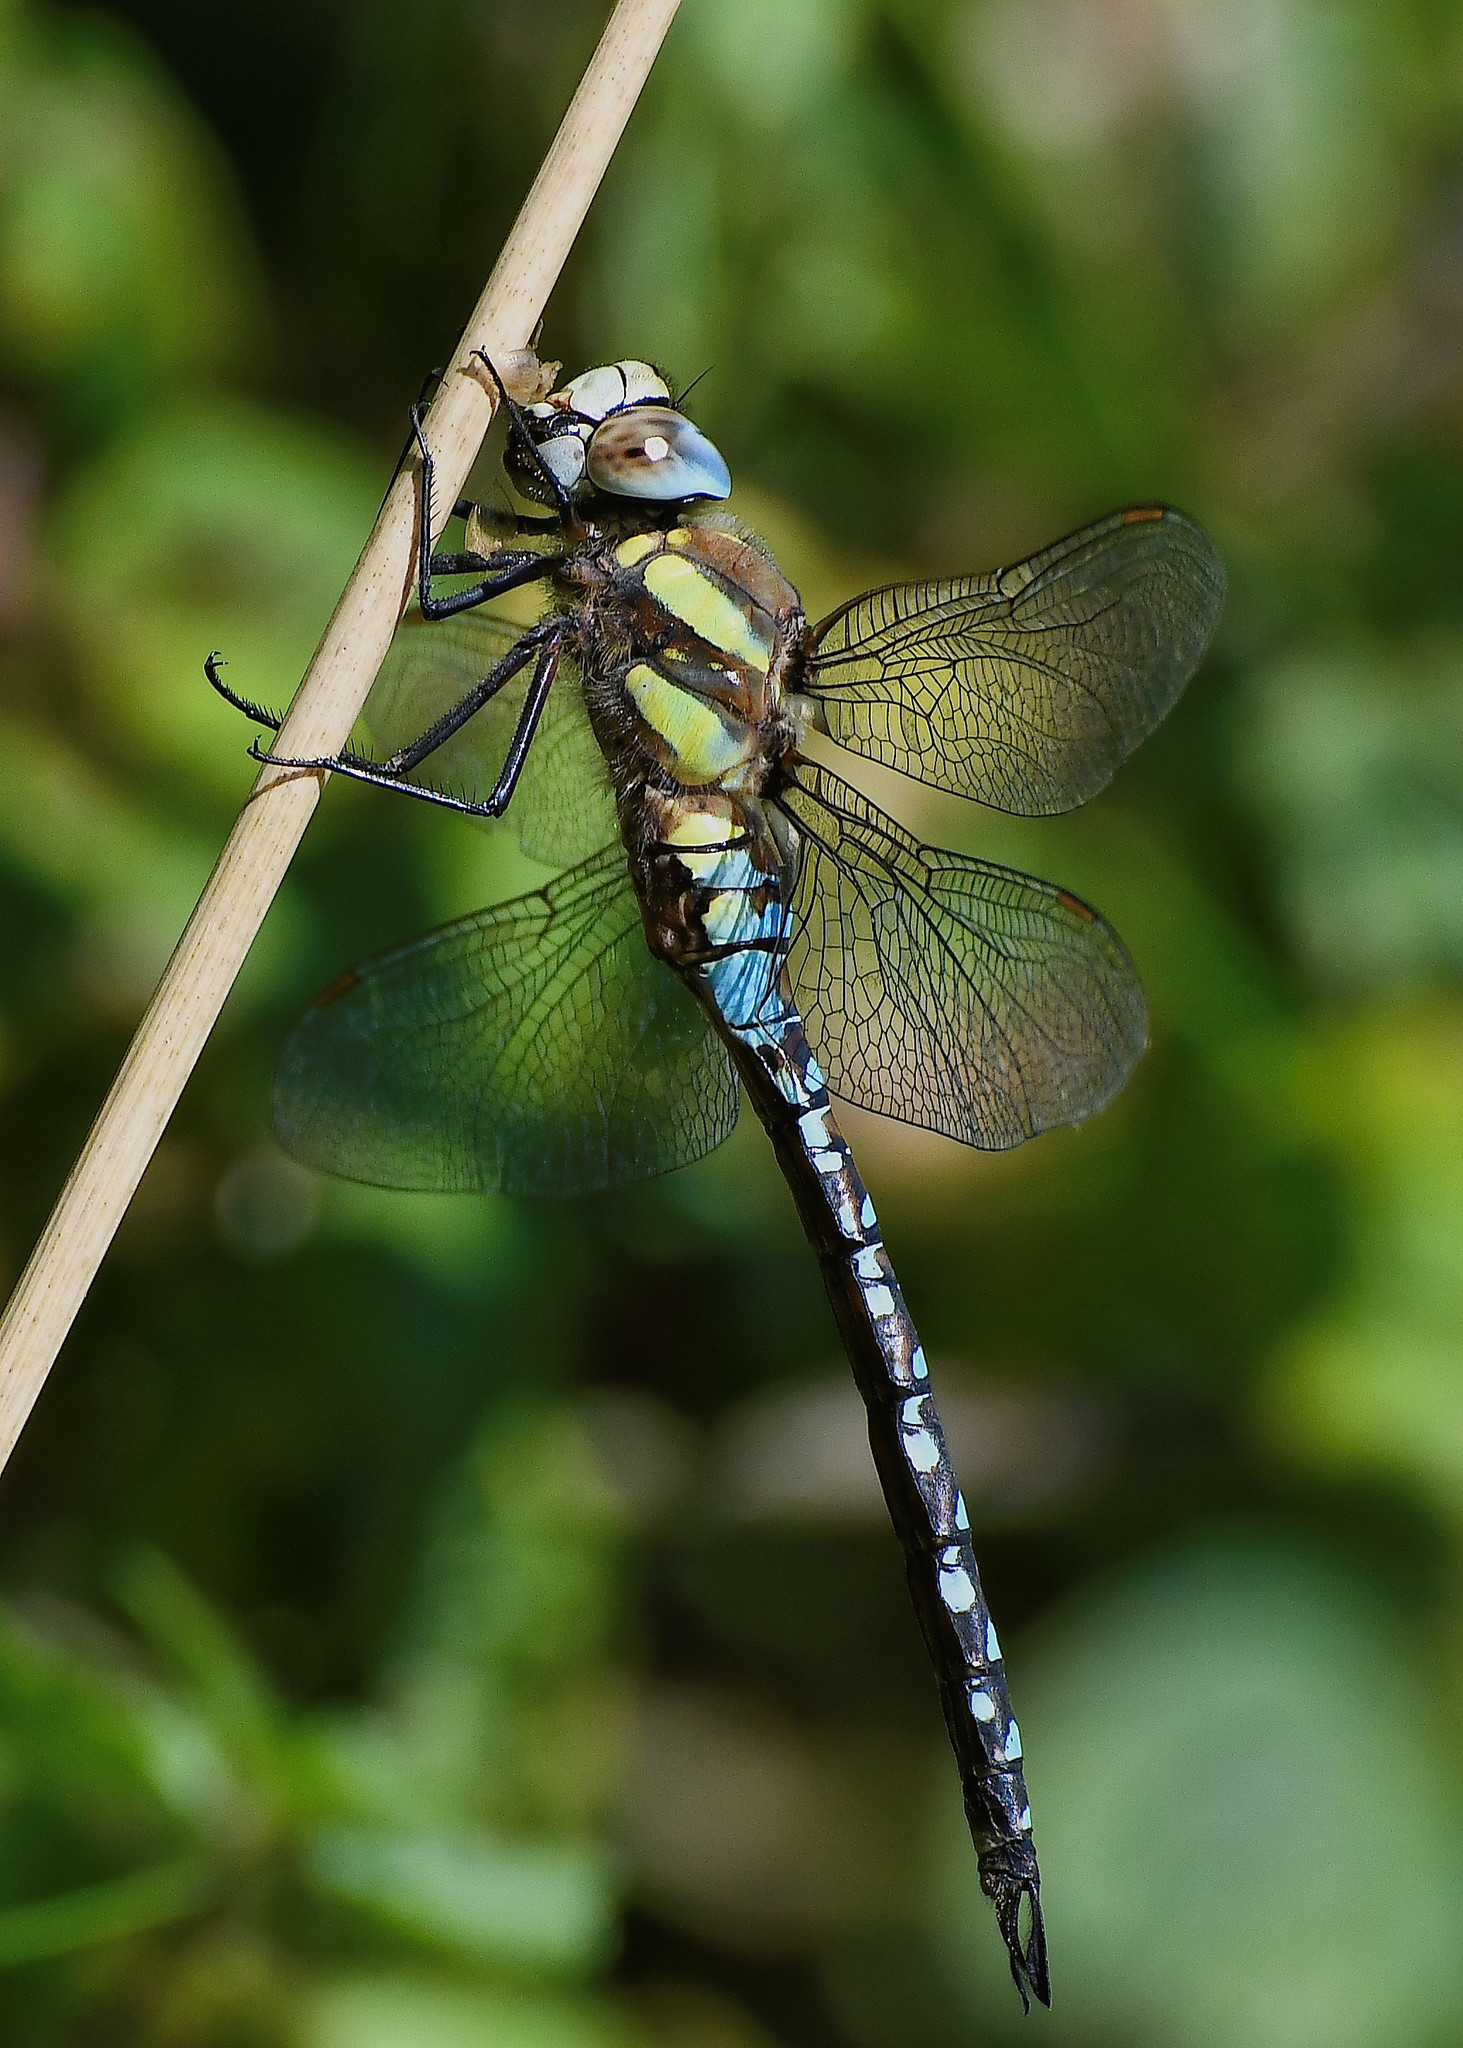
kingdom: Animalia
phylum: Arthropoda
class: Insecta
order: Odonata
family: Aeshnidae
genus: Aeshna
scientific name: Aeshna mixta
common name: Migrant hawker
